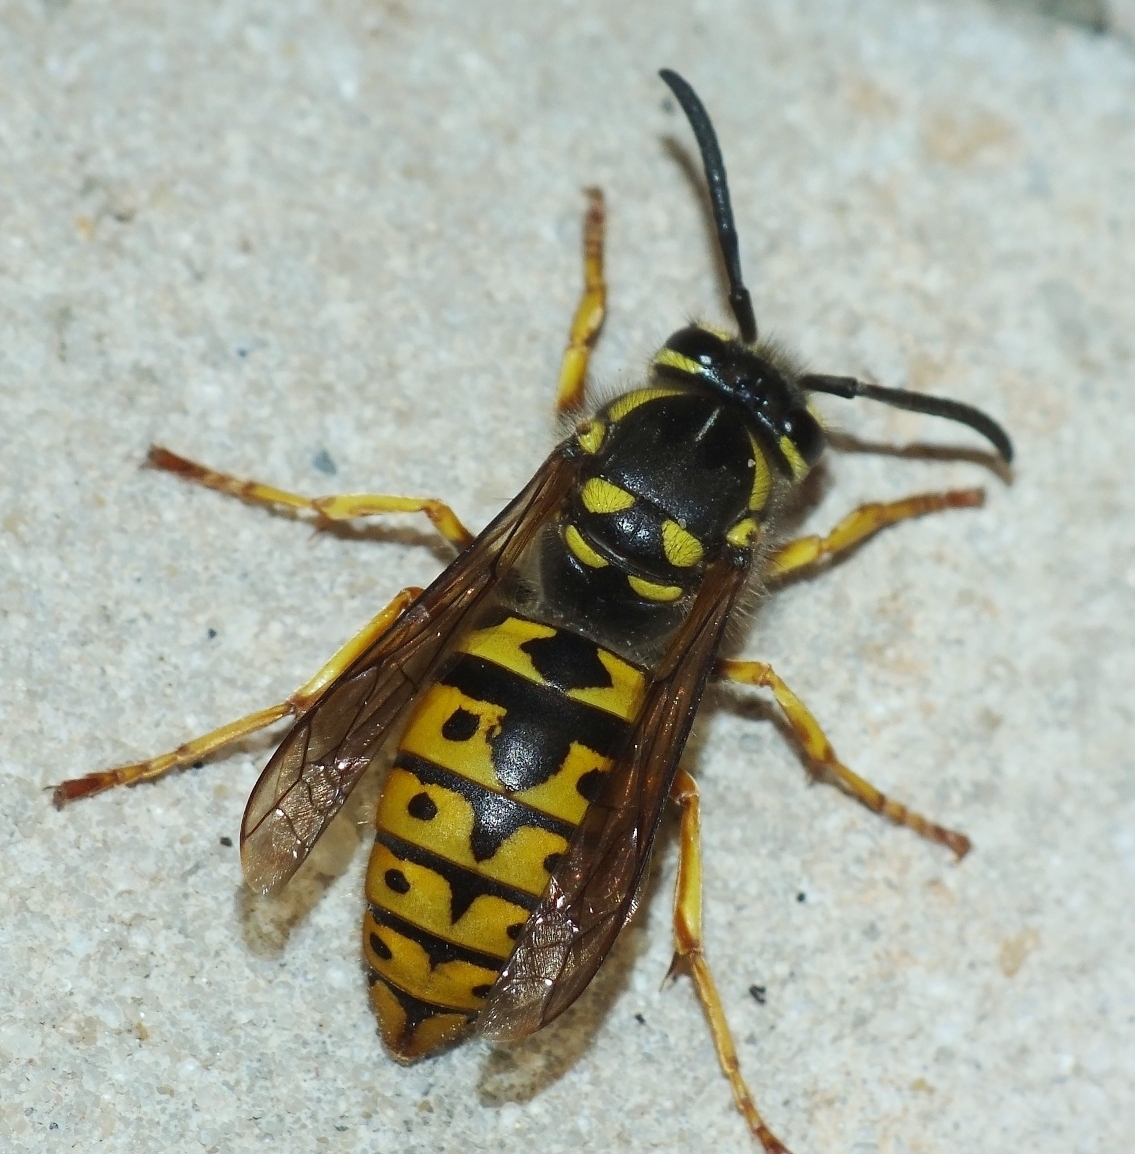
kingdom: Animalia
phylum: Arthropoda
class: Insecta
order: Hymenoptera
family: Vespidae
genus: Vespula
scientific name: Vespula germanica
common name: German wasp
